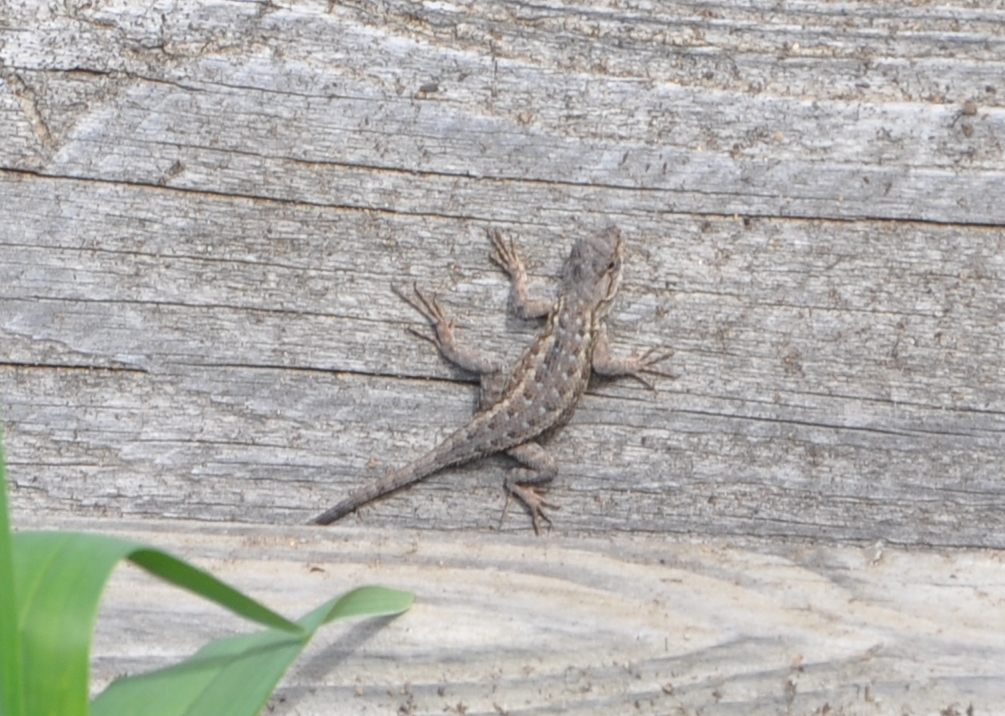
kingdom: Animalia
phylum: Chordata
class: Squamata
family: Phrynosomatidae
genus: Sceloporus
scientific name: Sceloporus occidentalis
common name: Western fence lizard
